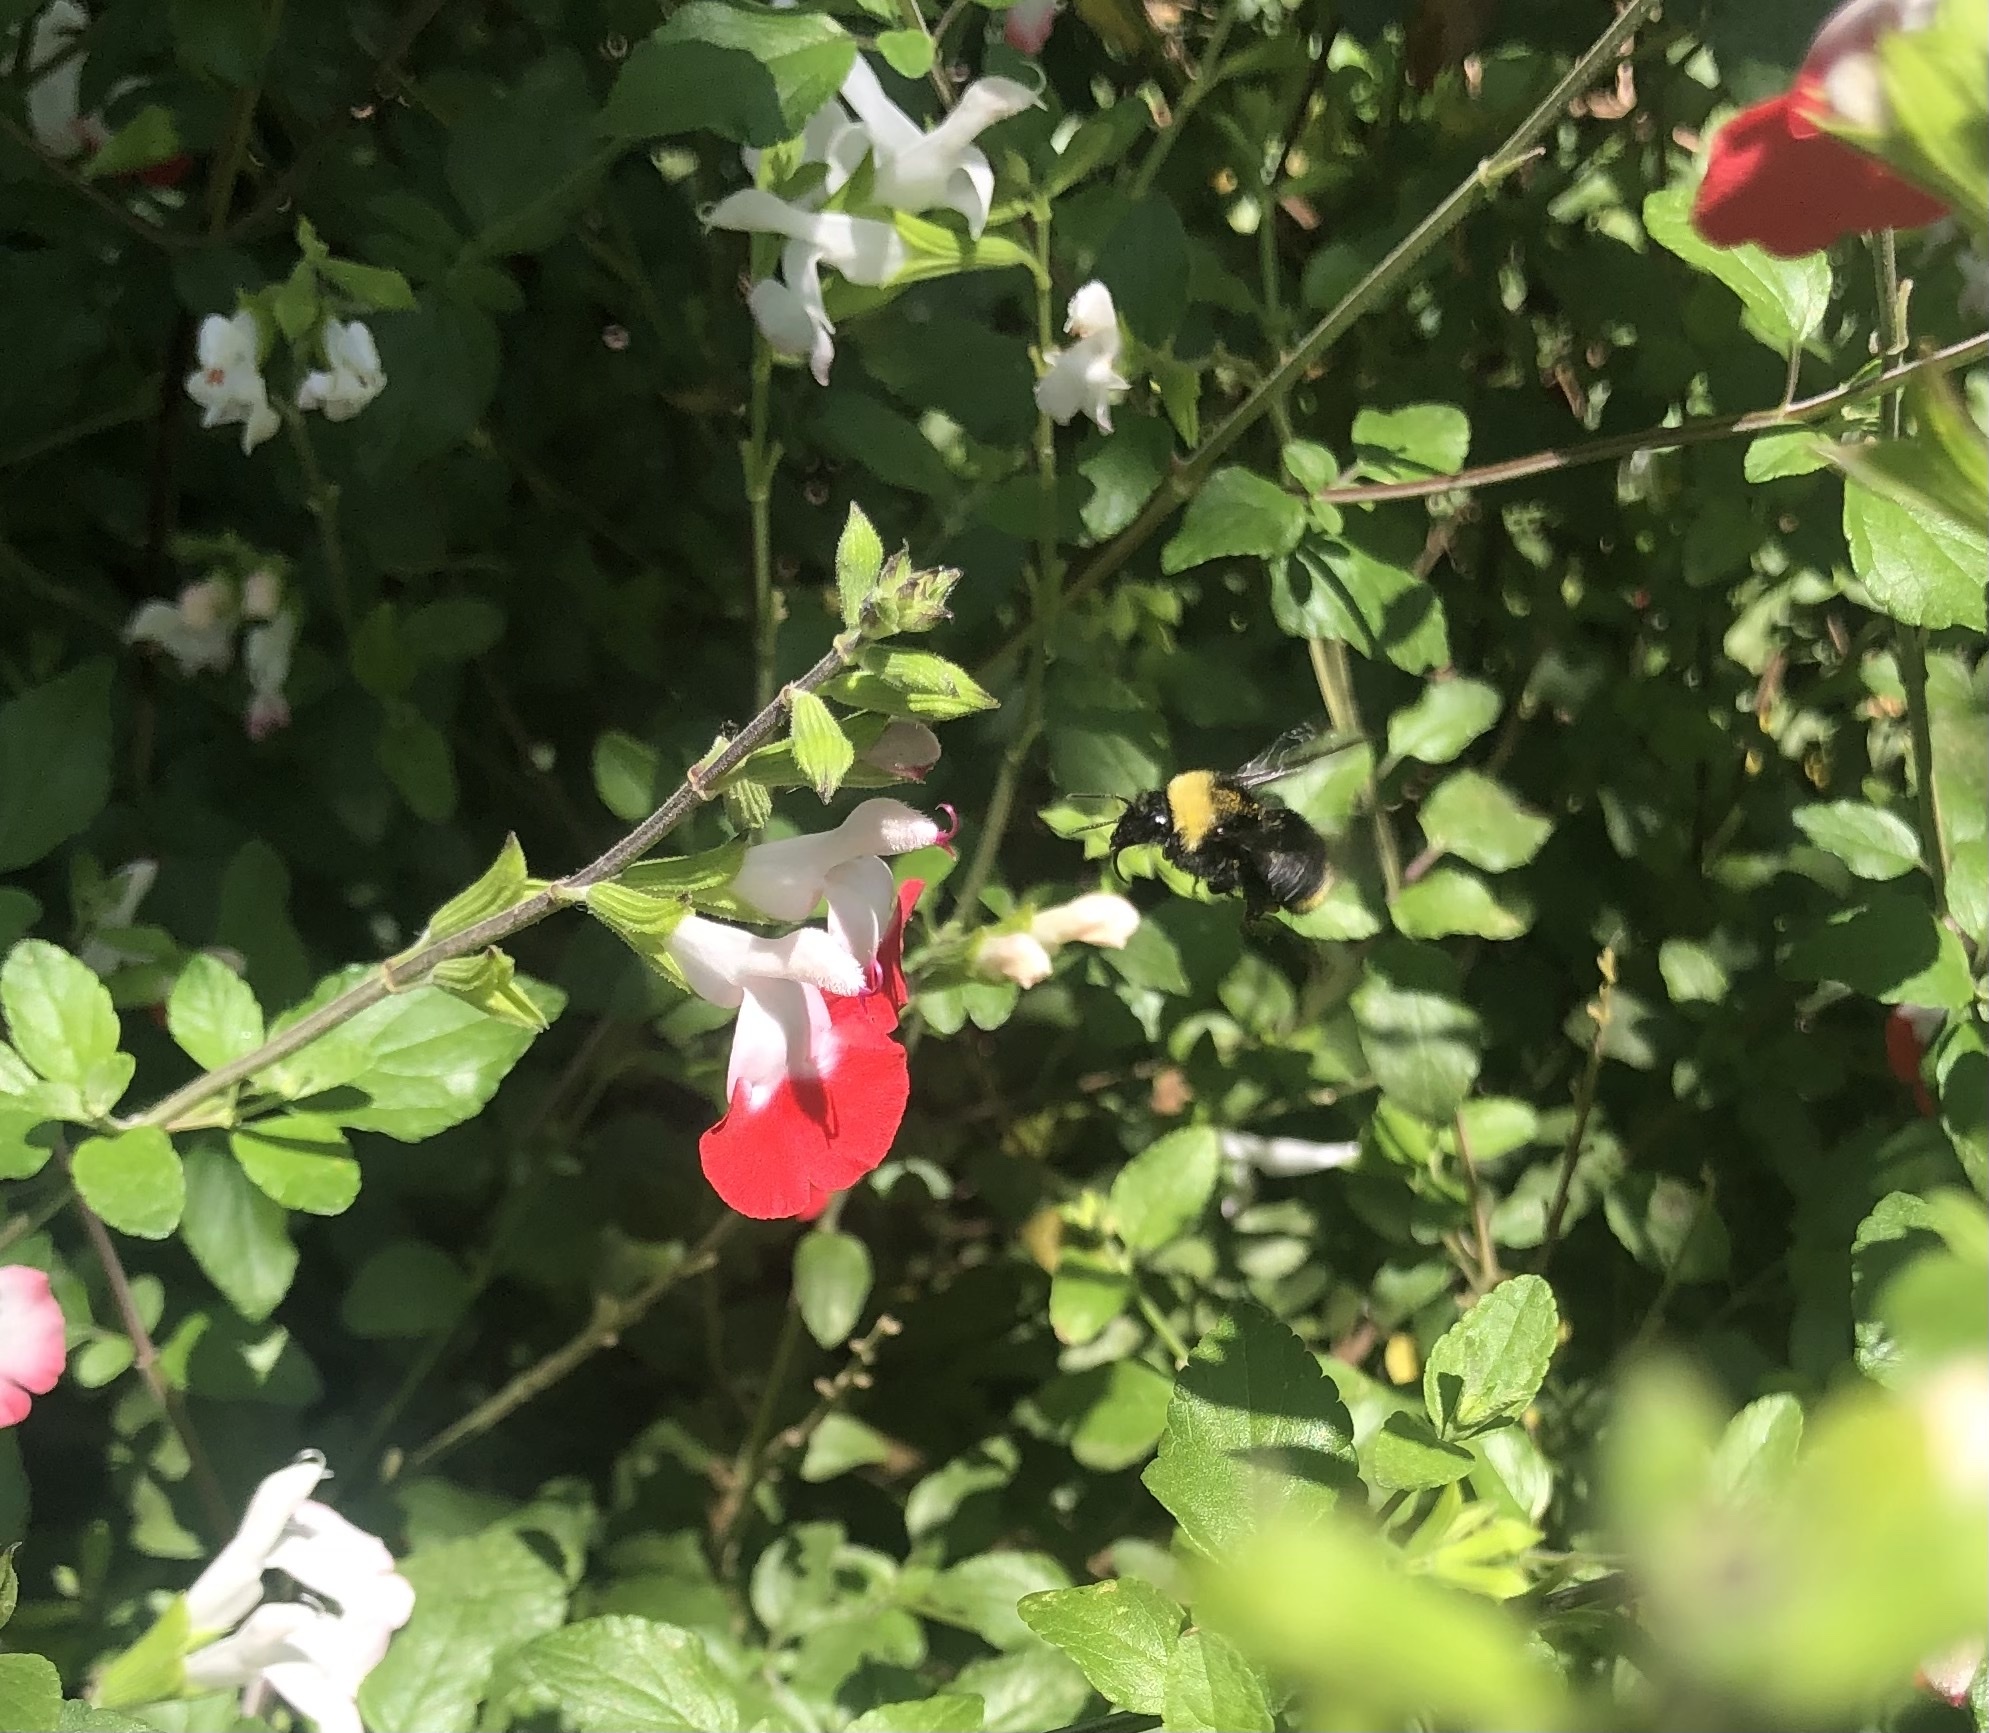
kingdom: Animalia
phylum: Arthropoda
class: Insecta
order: Hymenoptera
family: Apidae
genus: Bombus
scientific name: Bombus californicus
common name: California bumble bee
